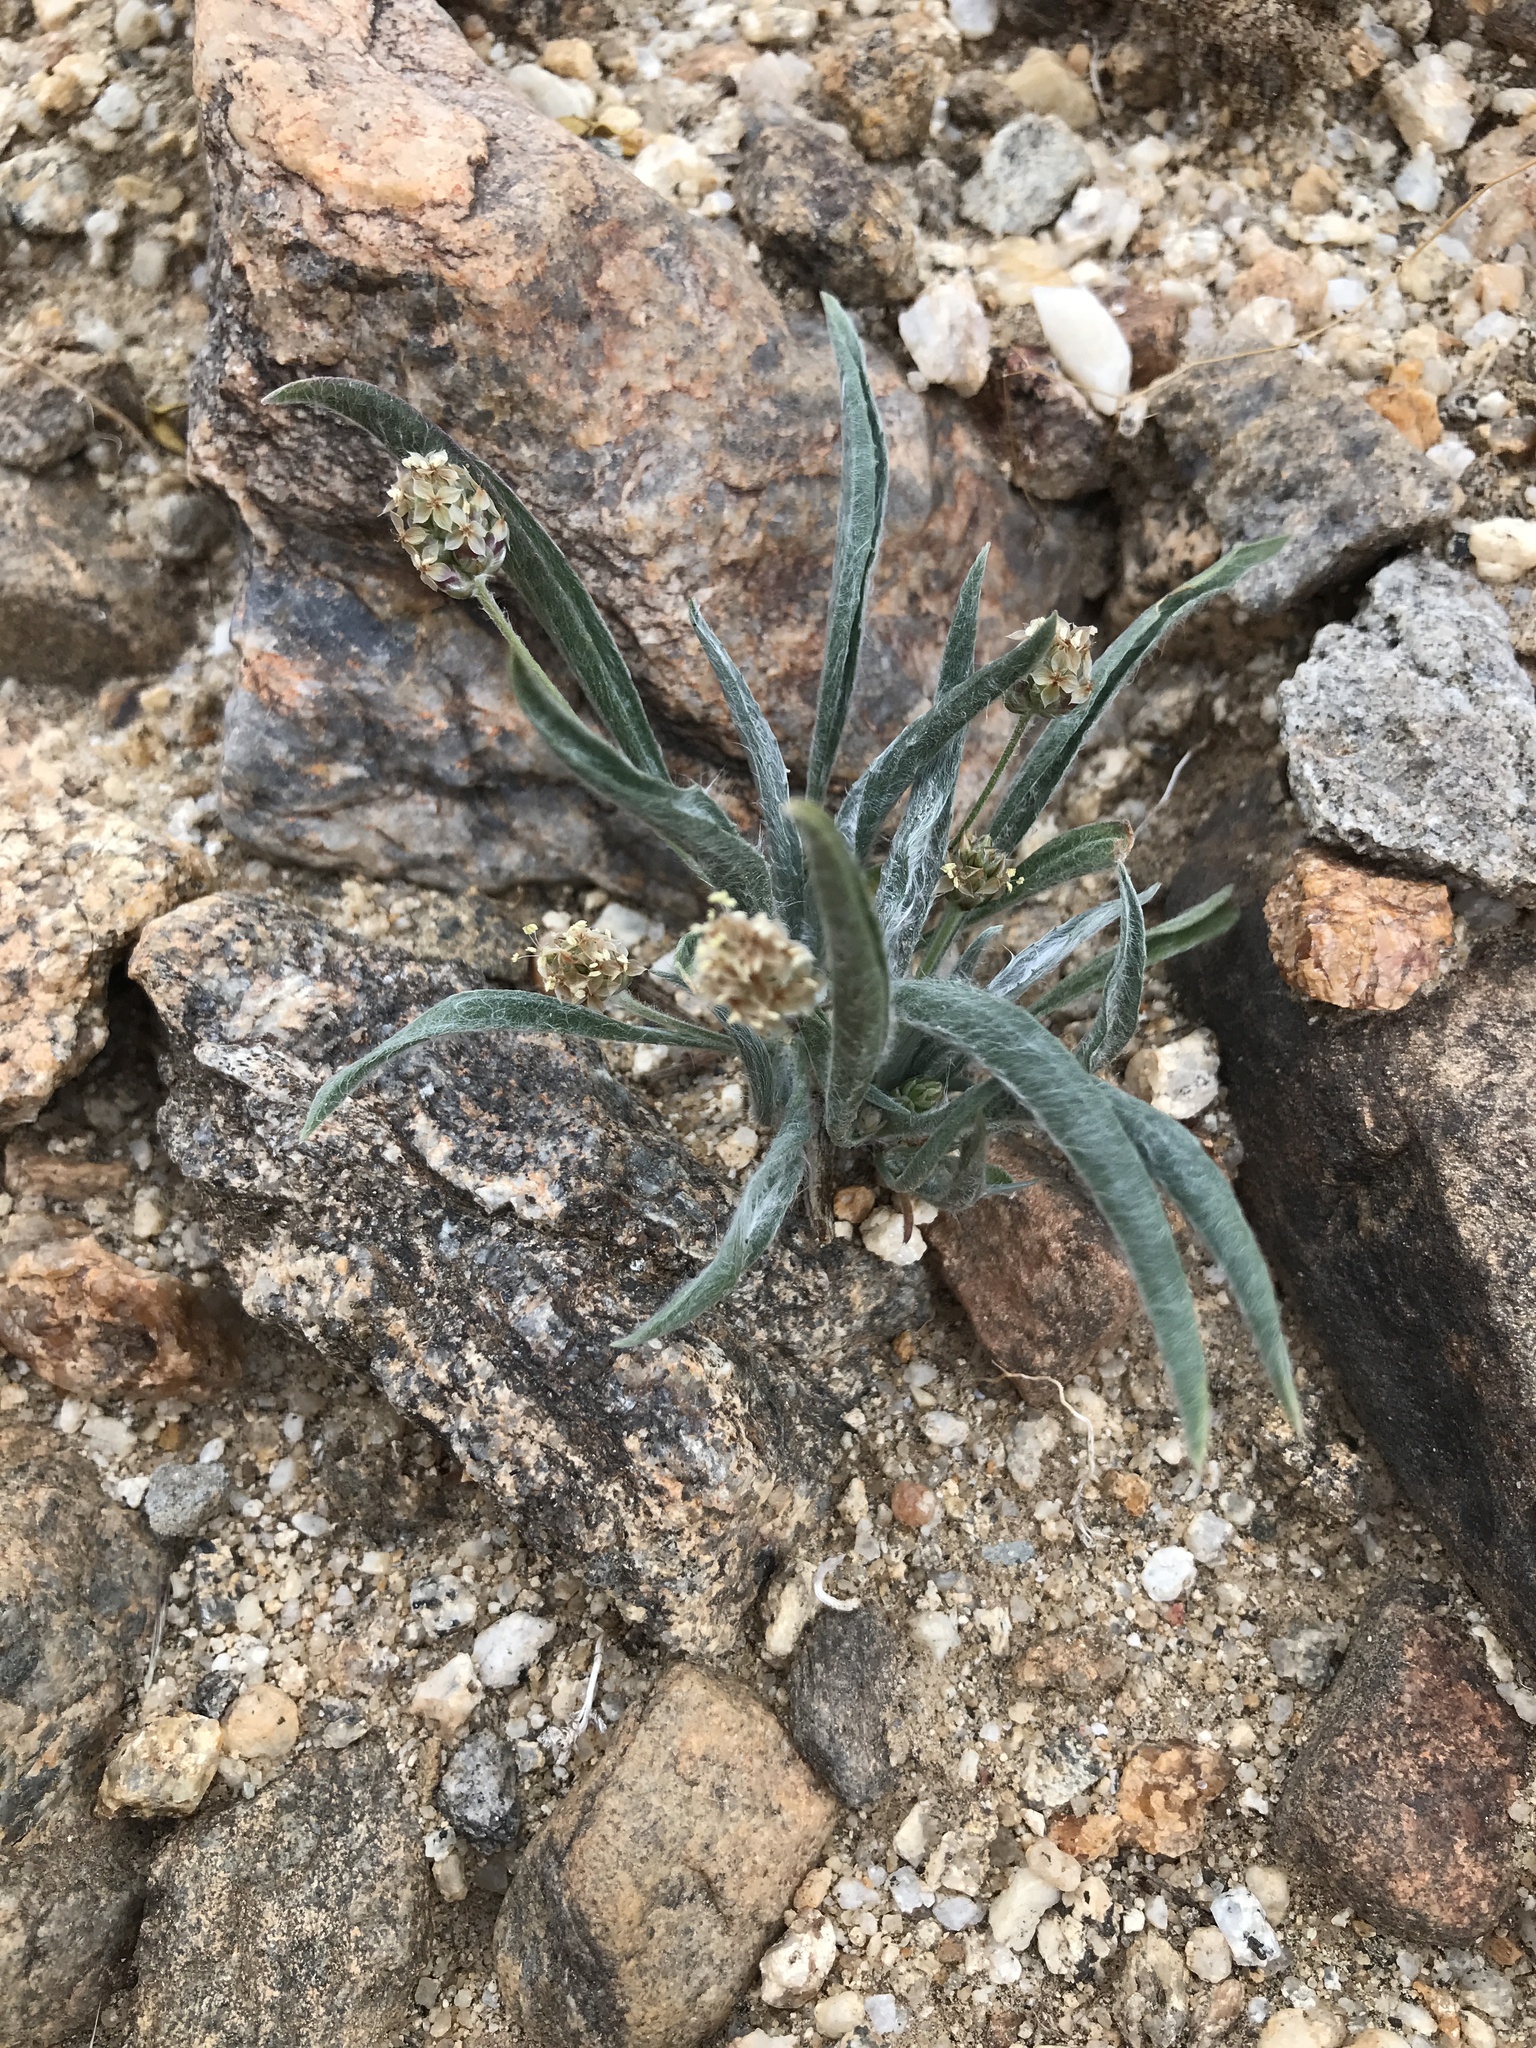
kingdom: Plantae
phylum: Tracheophyta
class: Magnoliopsida
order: Lamiales
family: Plantaginaceae
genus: Plantago
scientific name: Plantago ovata
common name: Blond plantain
